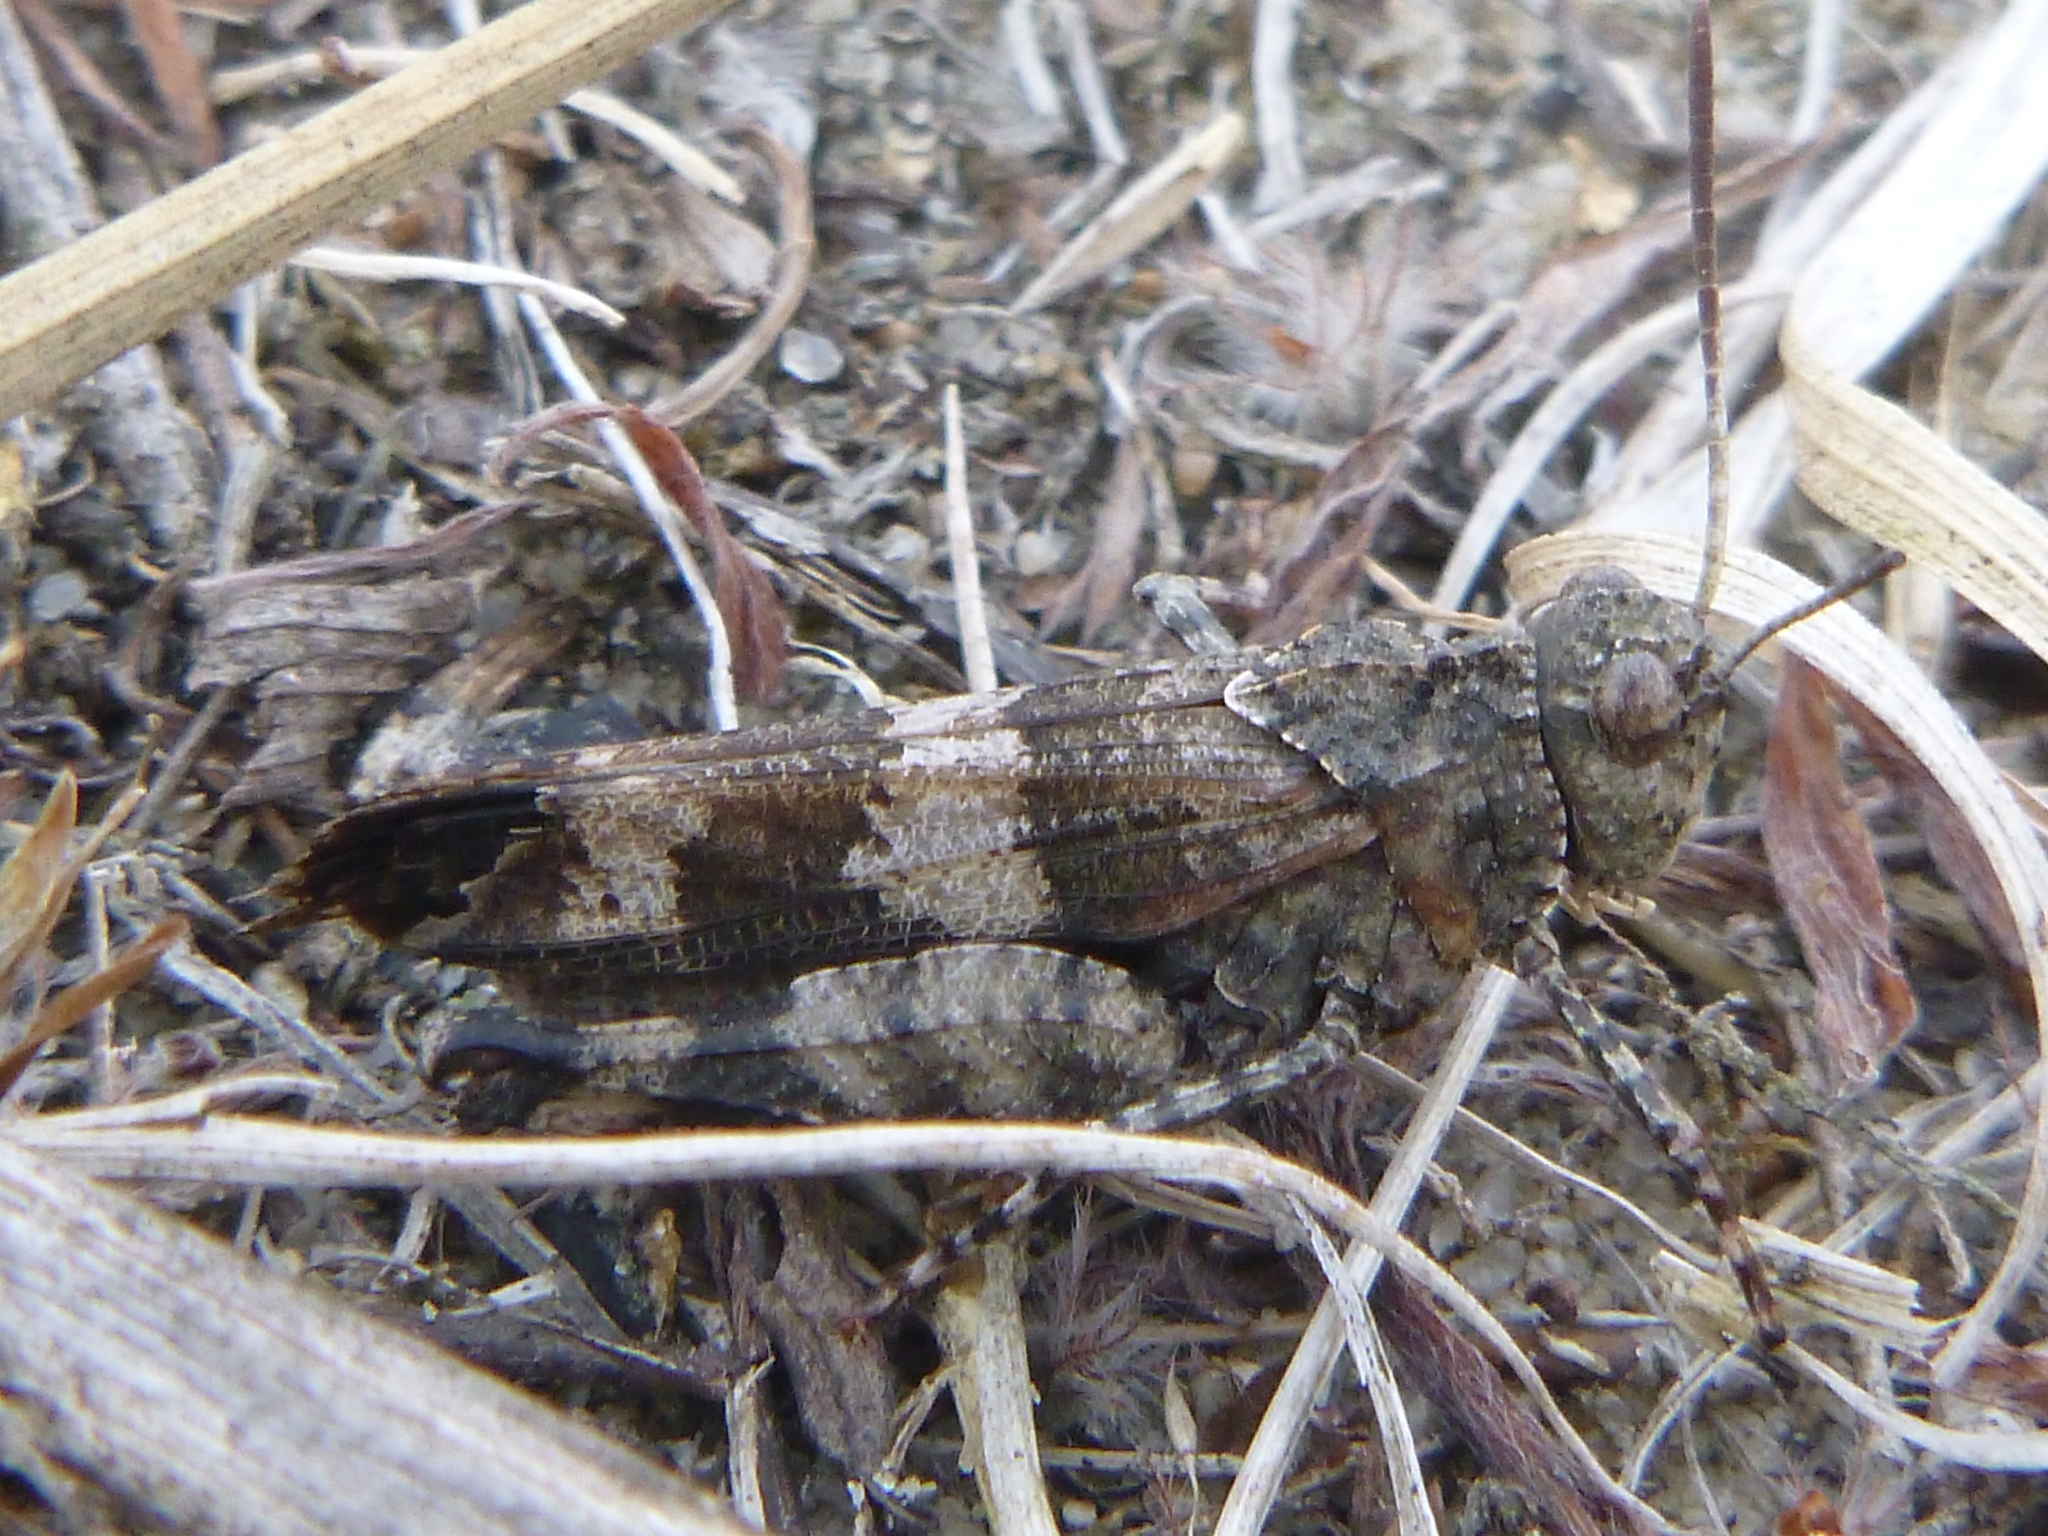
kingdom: Animalia
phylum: Arthropoda
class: Insecta
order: Orthoptera
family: Acrididae
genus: Oedipoda
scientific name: Oedipoda caerulescens
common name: Blue-winged grasshopper
